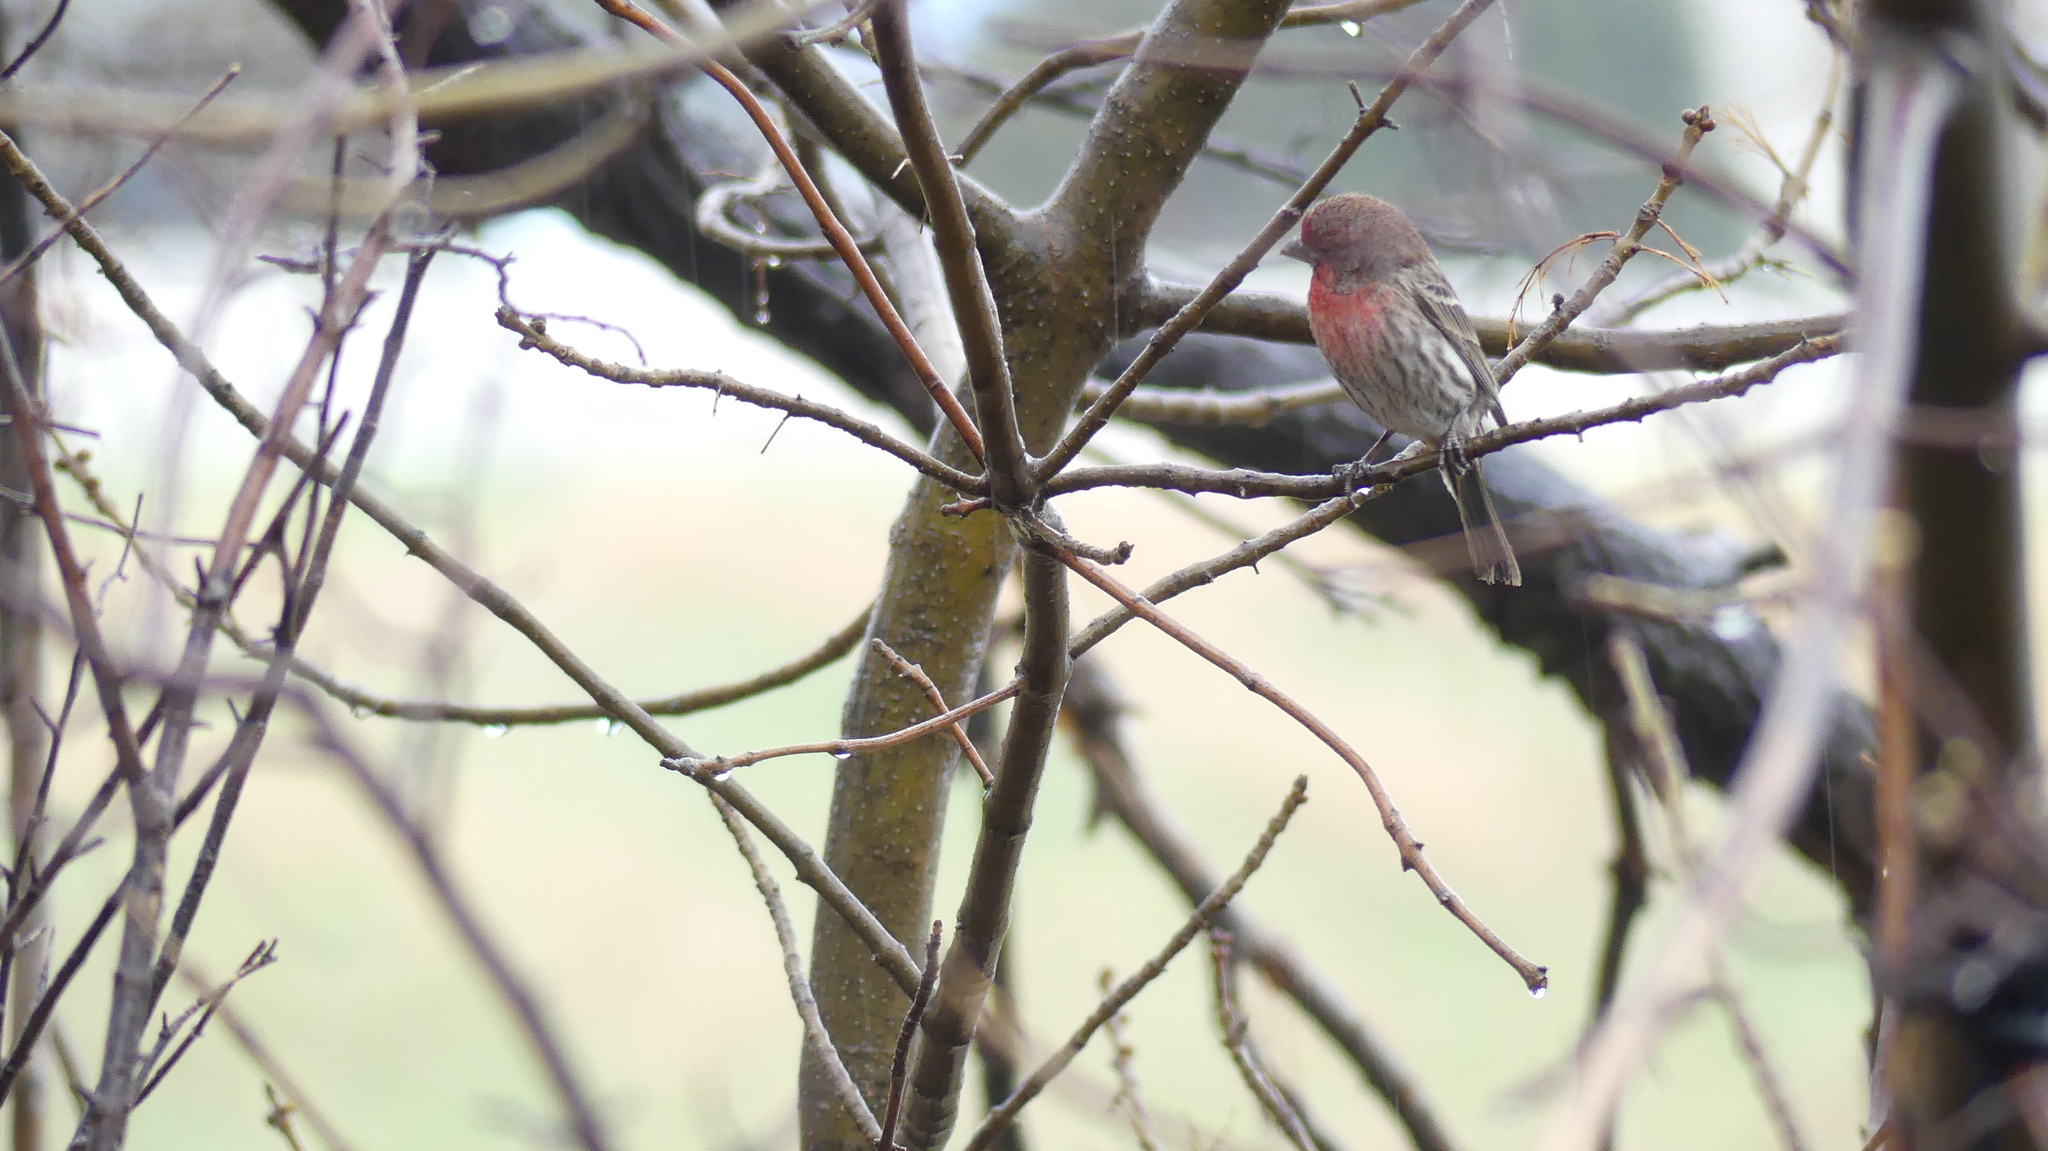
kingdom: Animalia
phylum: Chordata
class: Aves
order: Passeriformes
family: Fringillidae
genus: Haemorhous
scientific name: Haemorhous mexicanus
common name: House finch
